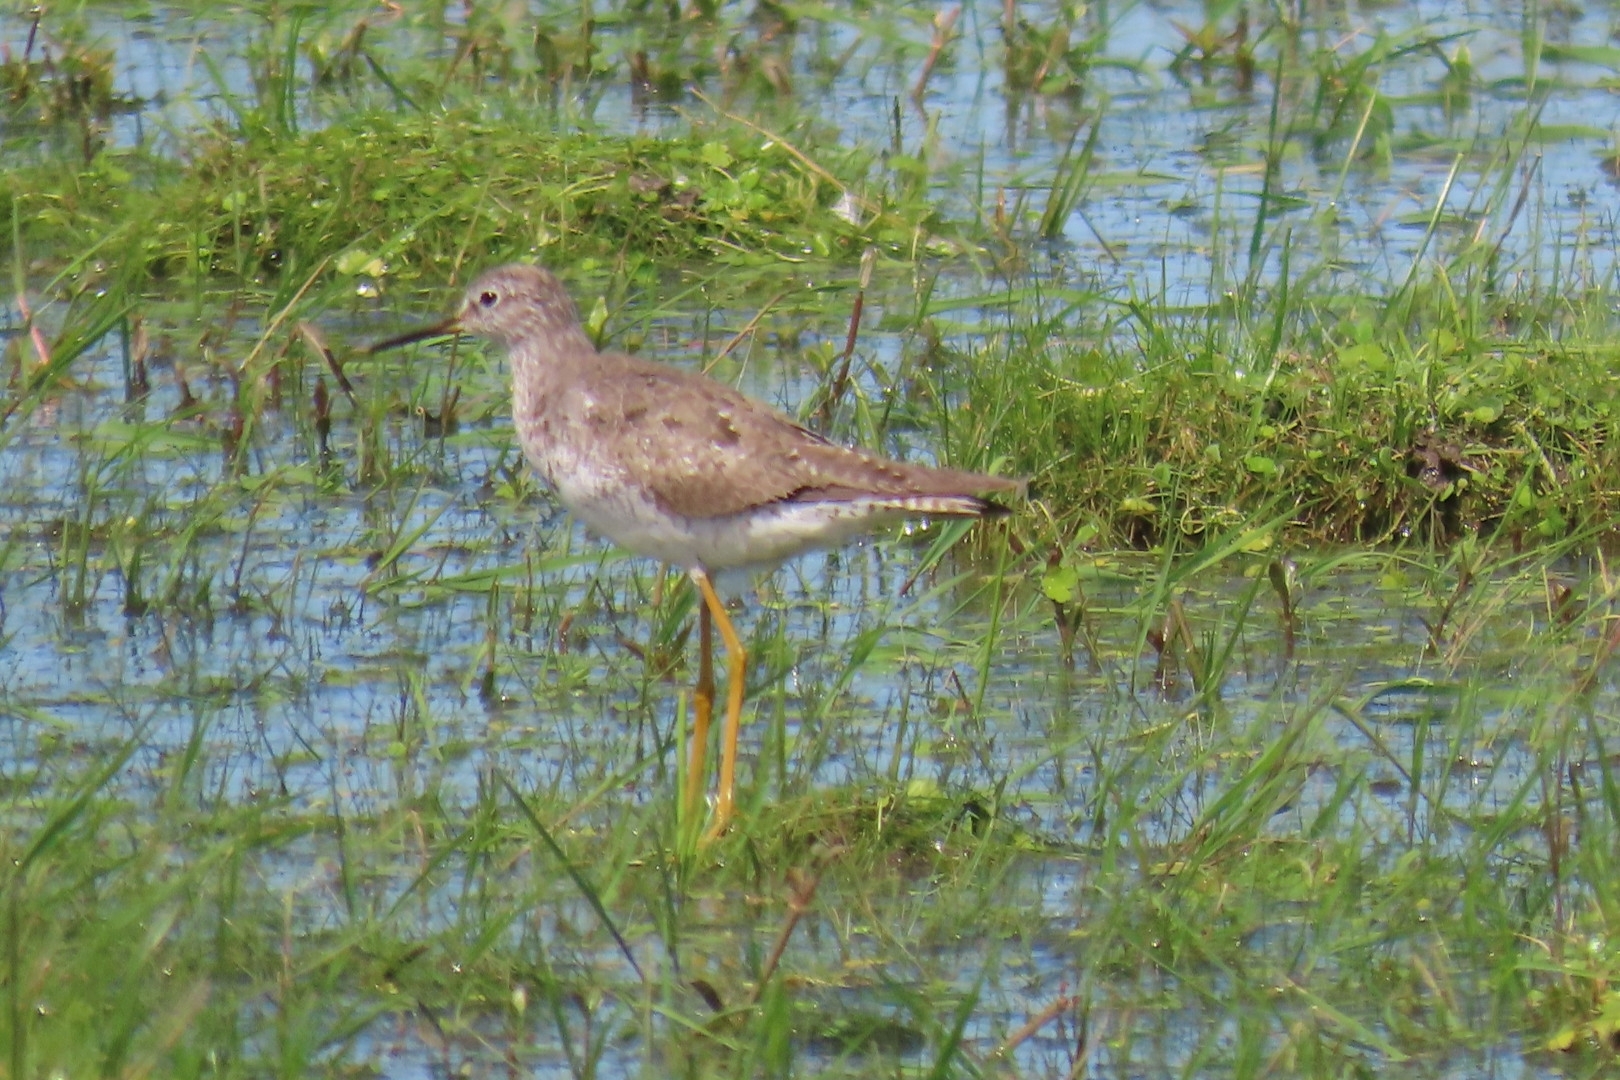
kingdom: Animalia
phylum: Chordata
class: Aves
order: Charadriiformes
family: Scolopacidae
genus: Tringa
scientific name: Tringa flavipes
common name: Lesser yellowlegs
